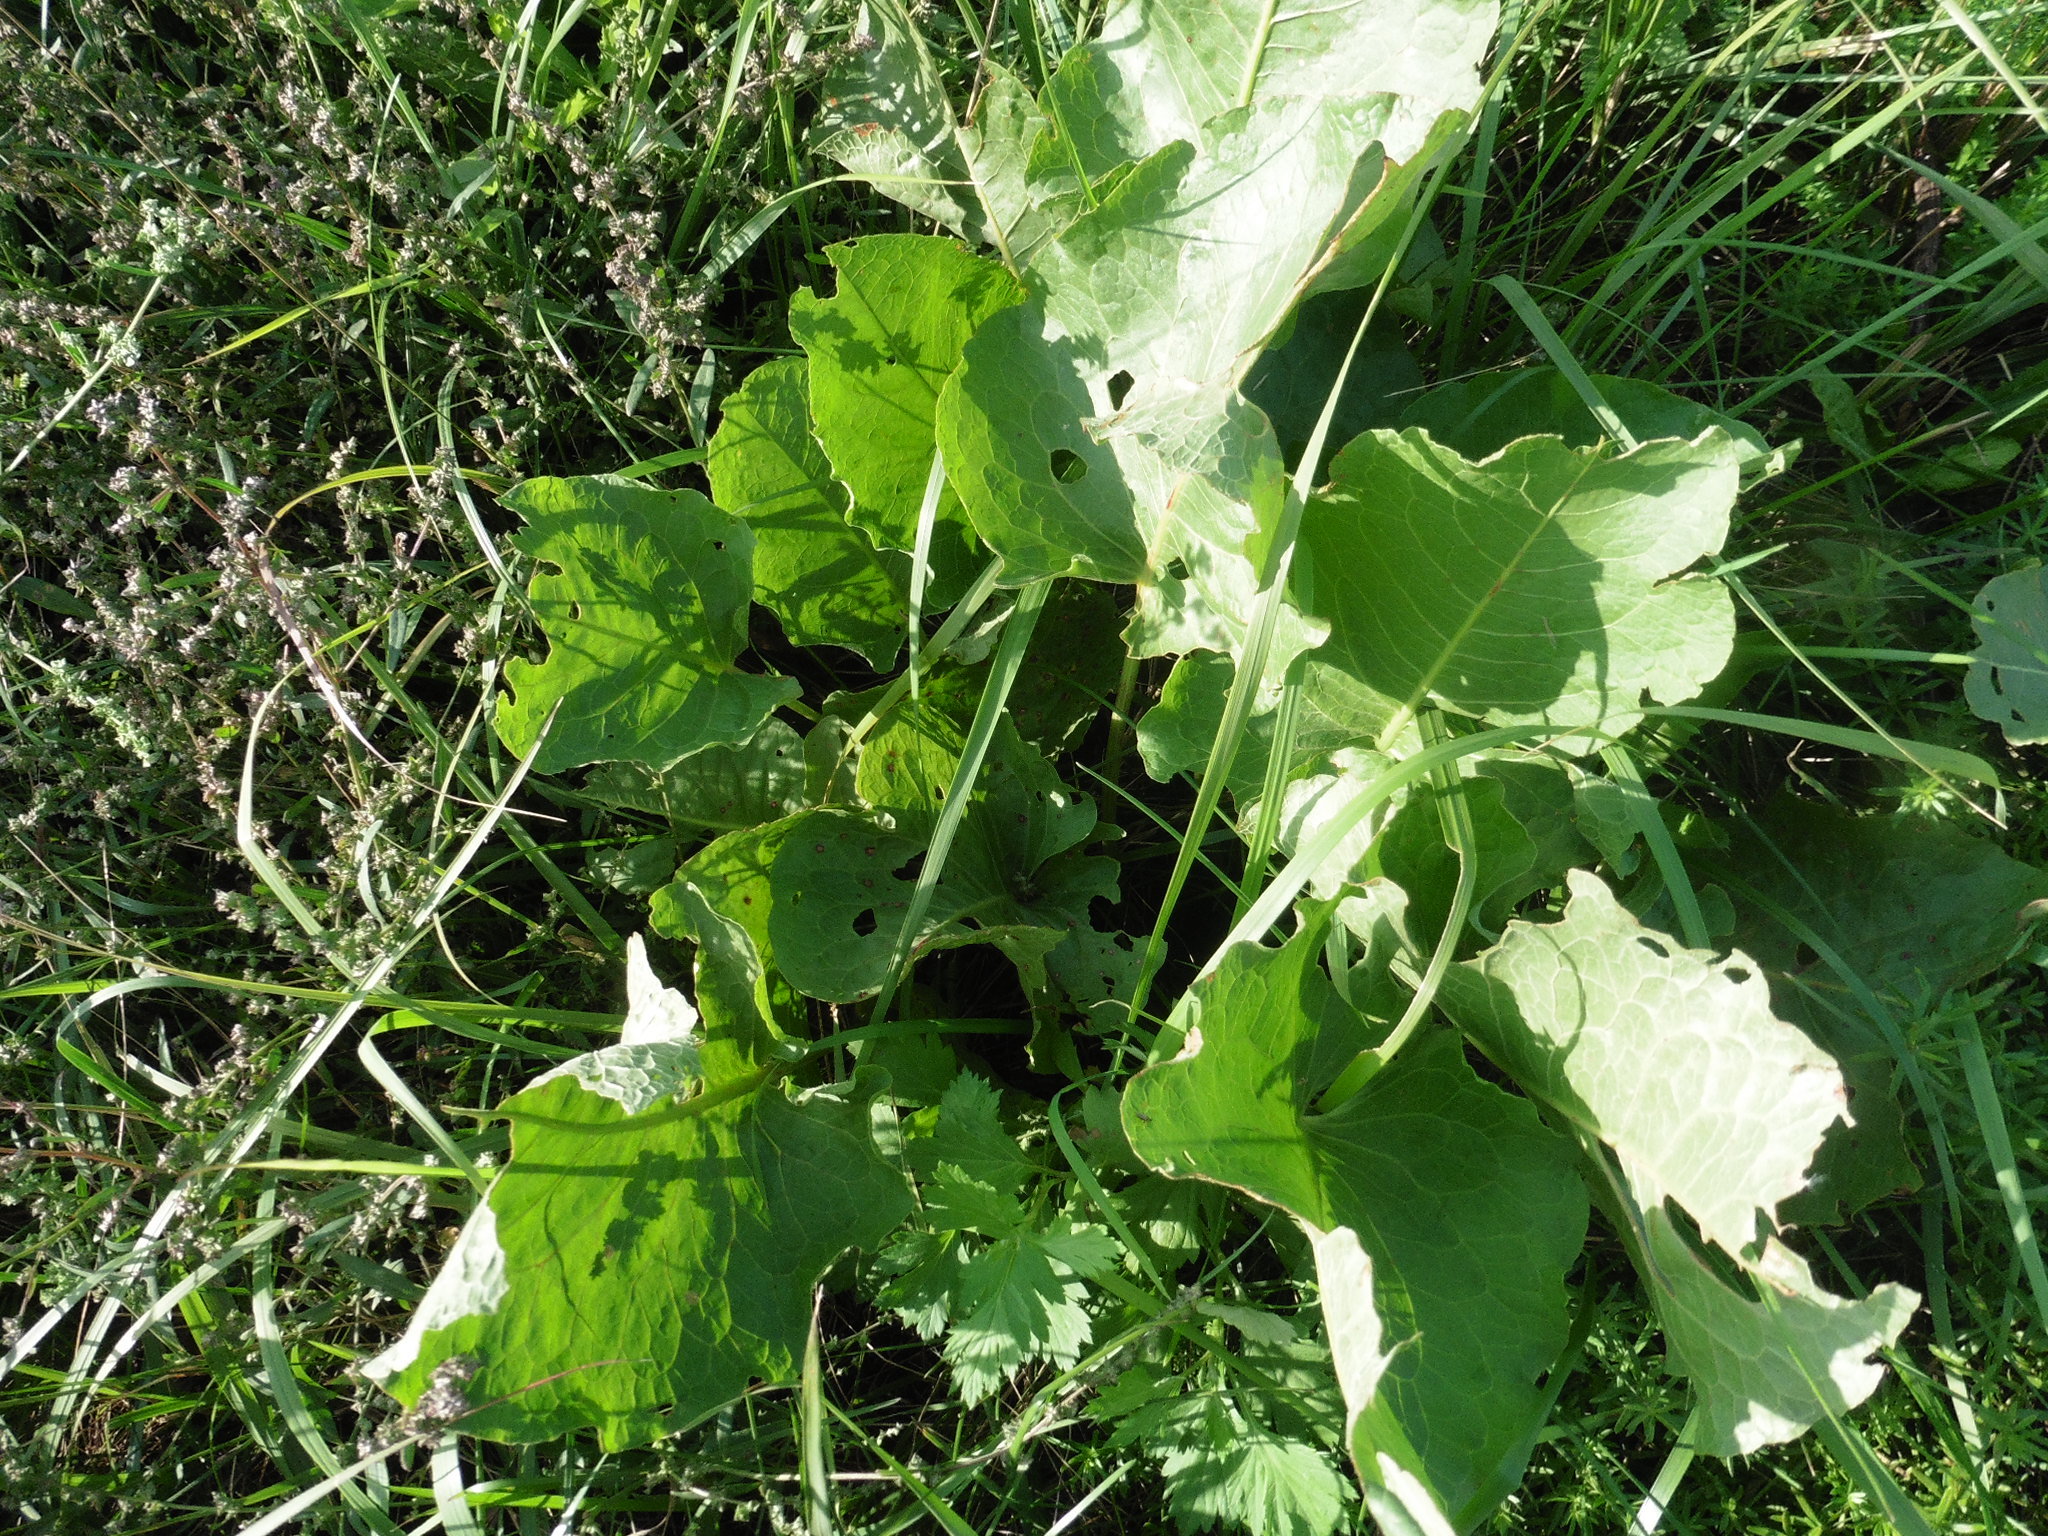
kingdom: Plantae
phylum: Tracheophyta
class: Magnoliopsida
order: Caryophyllales
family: Polygonaceae
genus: Rumex
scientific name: Rumex confertus
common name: Russian dock
